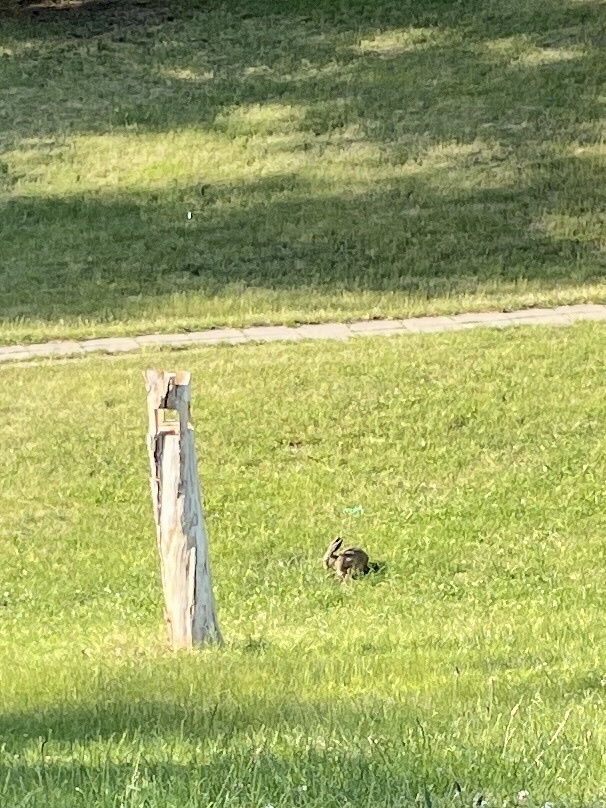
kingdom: Animalia
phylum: Chordata
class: Mammalia
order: Lagomorpha
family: Leporidae
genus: Lepus
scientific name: Lepus europaeus
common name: European hare
